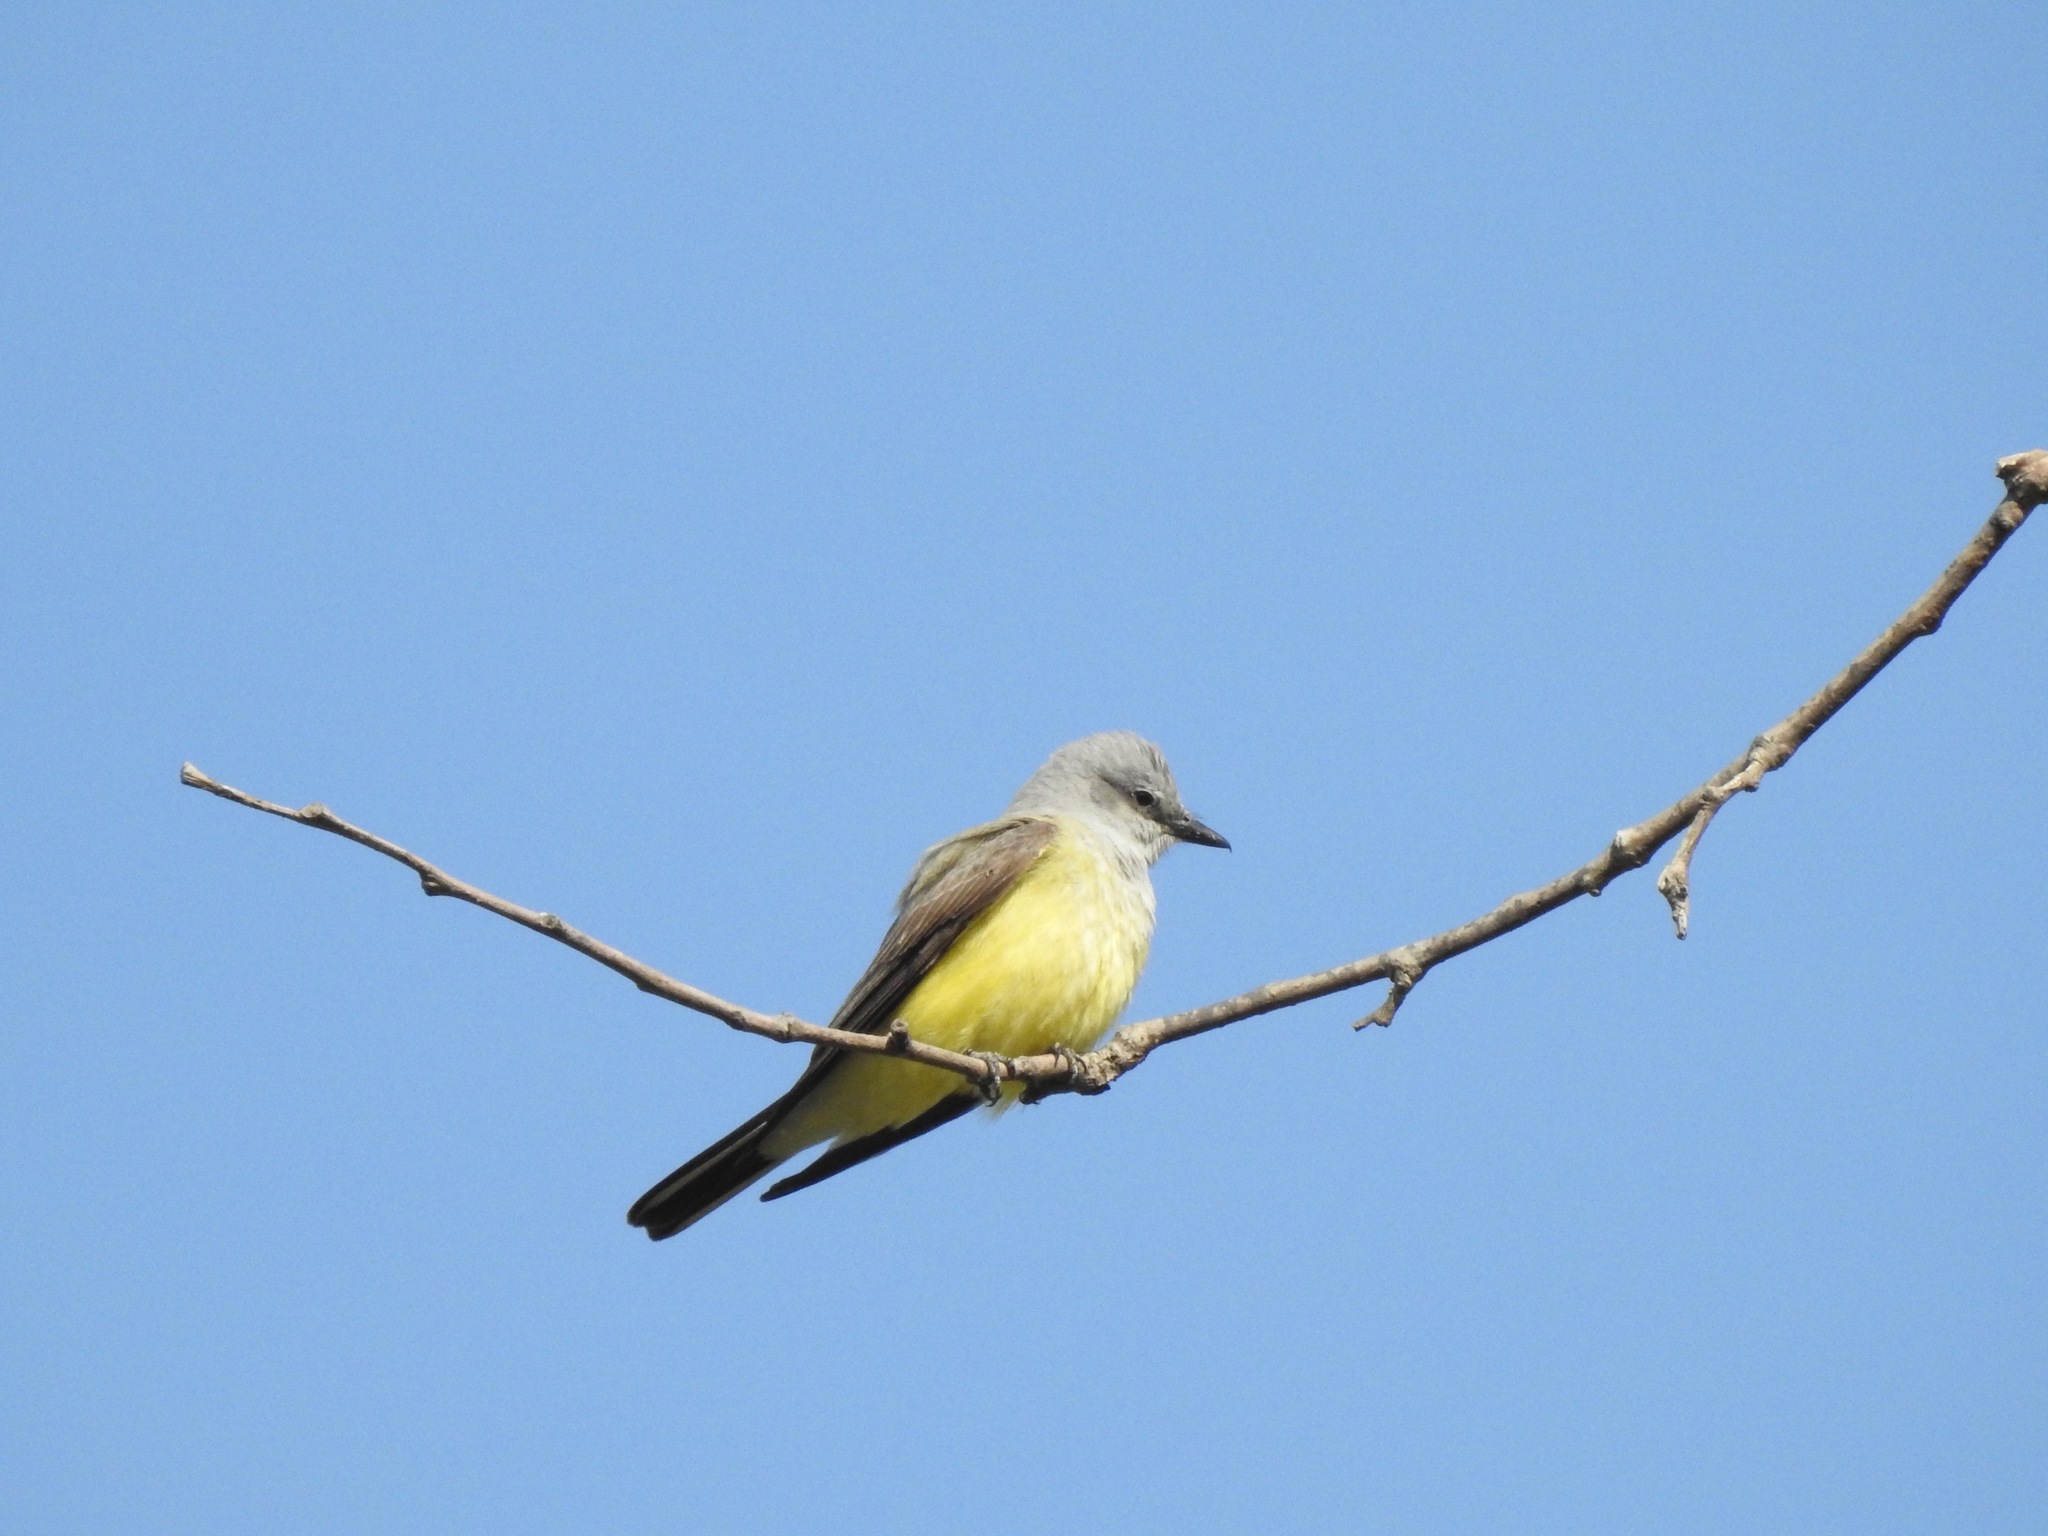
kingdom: Animalia
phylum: Chordata
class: Aves
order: Passeriformes
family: Tyrannidae
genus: Tyrannus
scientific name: Tyrannus verticalis
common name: Western kingbird
